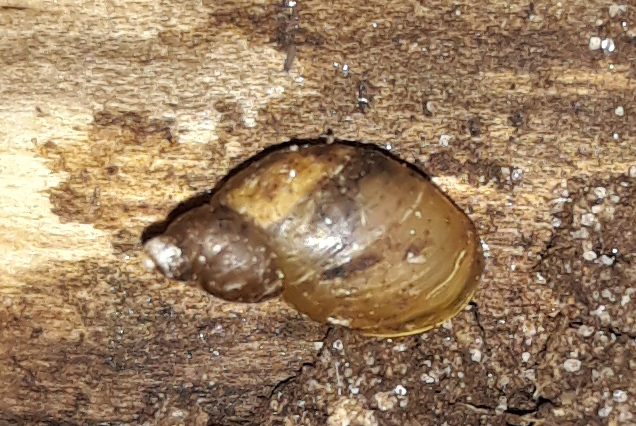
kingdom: Animalia
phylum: Mollusca
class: Gastropoda
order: Stylommatophora
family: Succineidae
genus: Succinella
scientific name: Succinella oblonga
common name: Small amber snail
